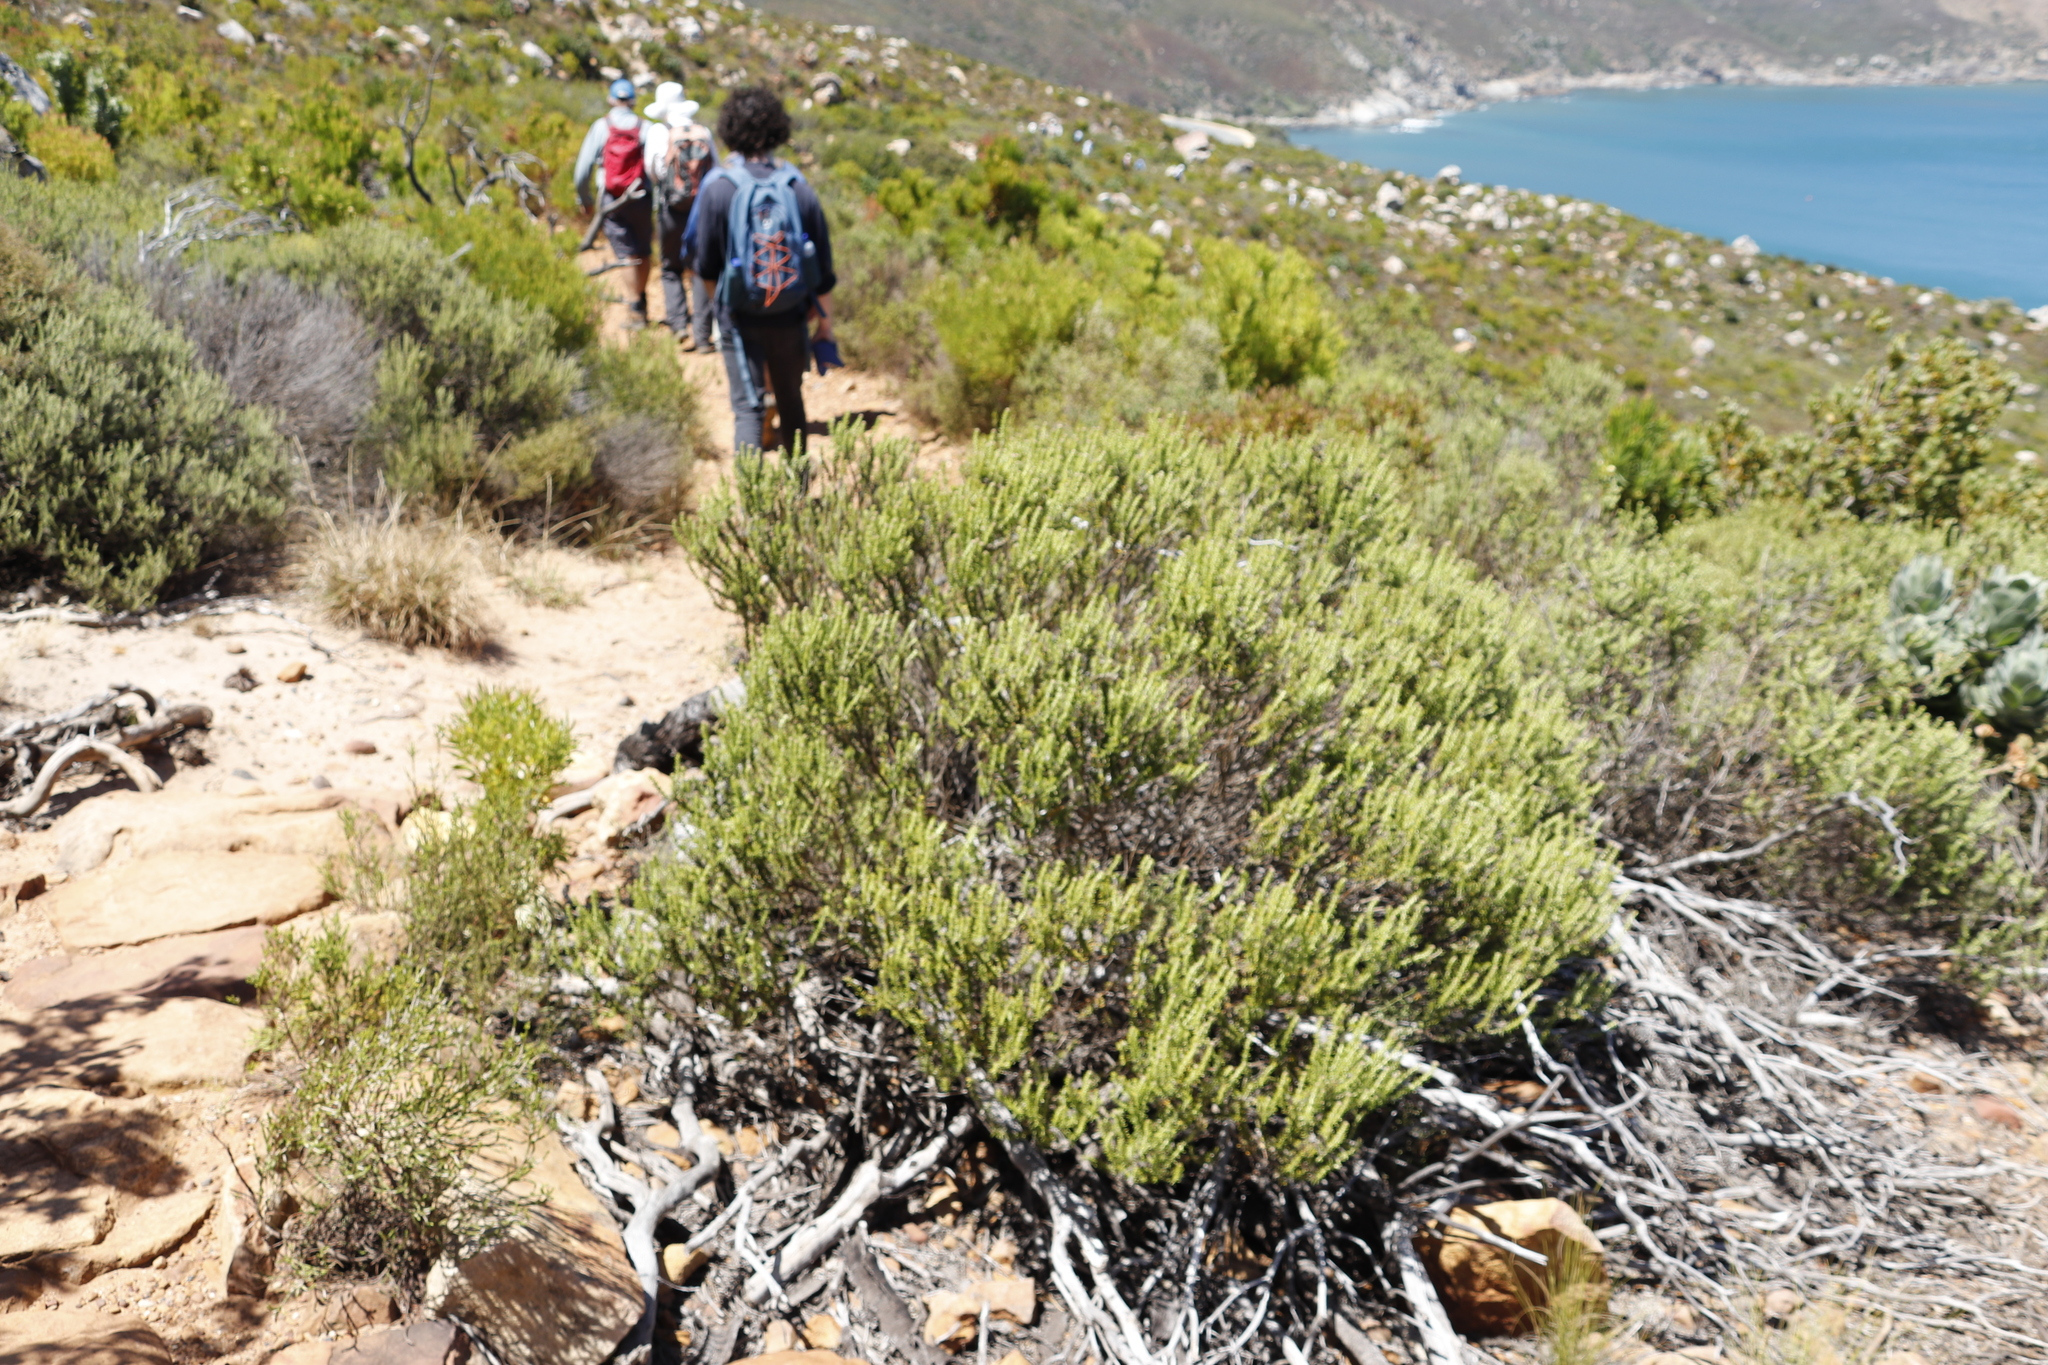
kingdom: Plantae
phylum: Tracheophyta
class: Magnoliopsida
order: Asterales
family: Asteraceae
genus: Metalasia
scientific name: Metalasia densa
